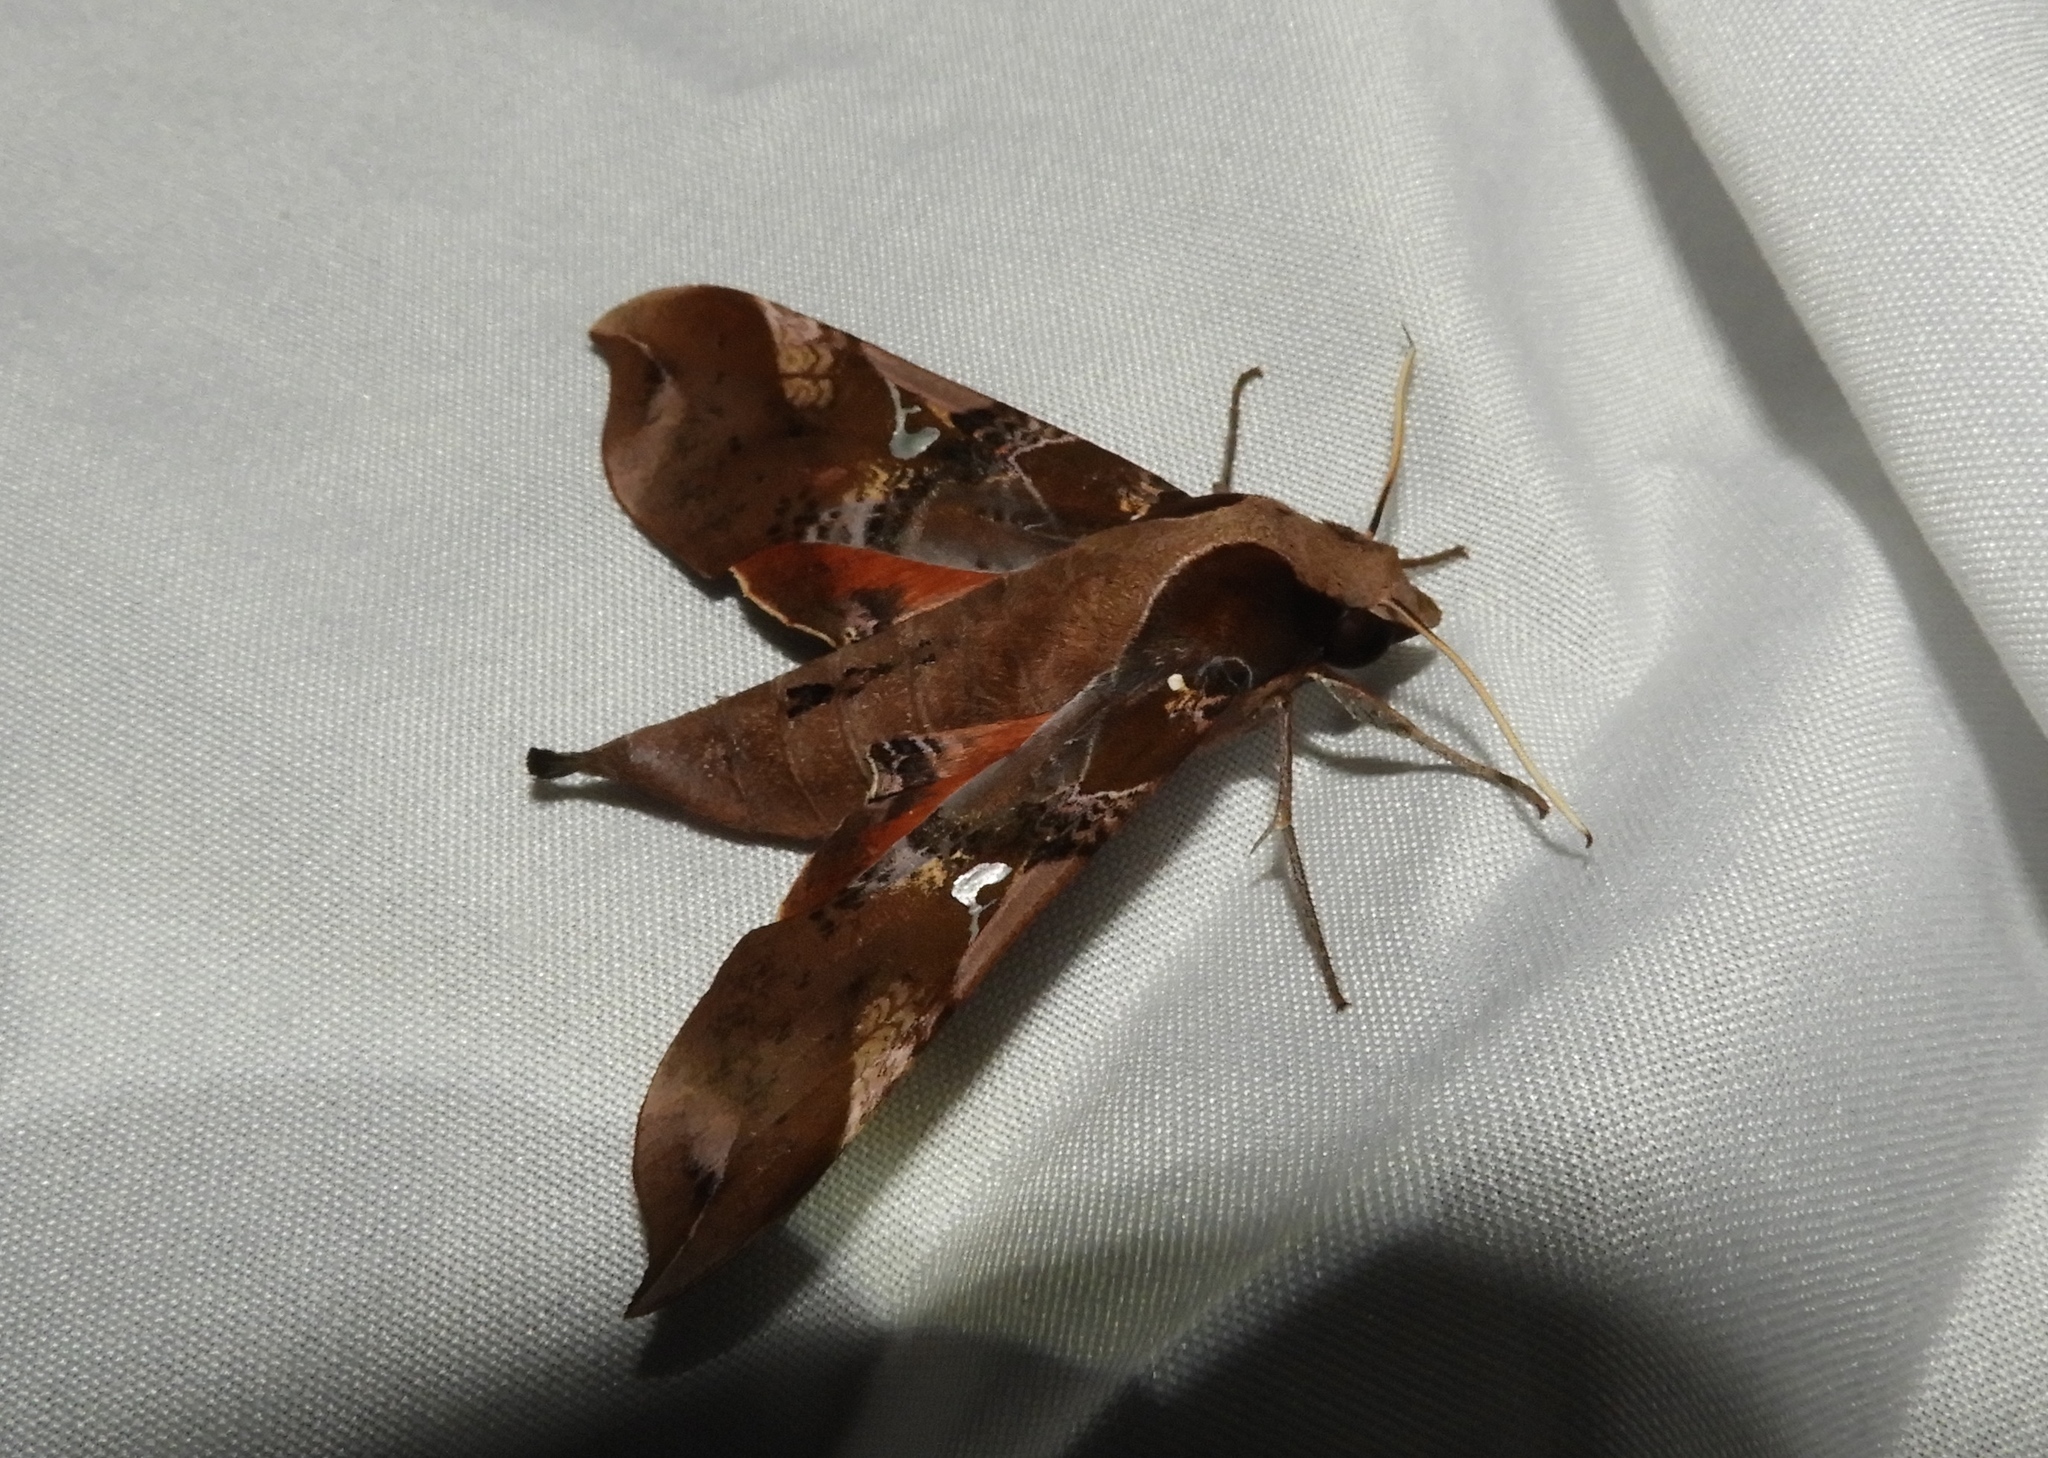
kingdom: Animalia
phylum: Arthropoda
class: Insecta
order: Lepidoptera
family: Sphingidae
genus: Callionima
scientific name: Callionima falcifera
